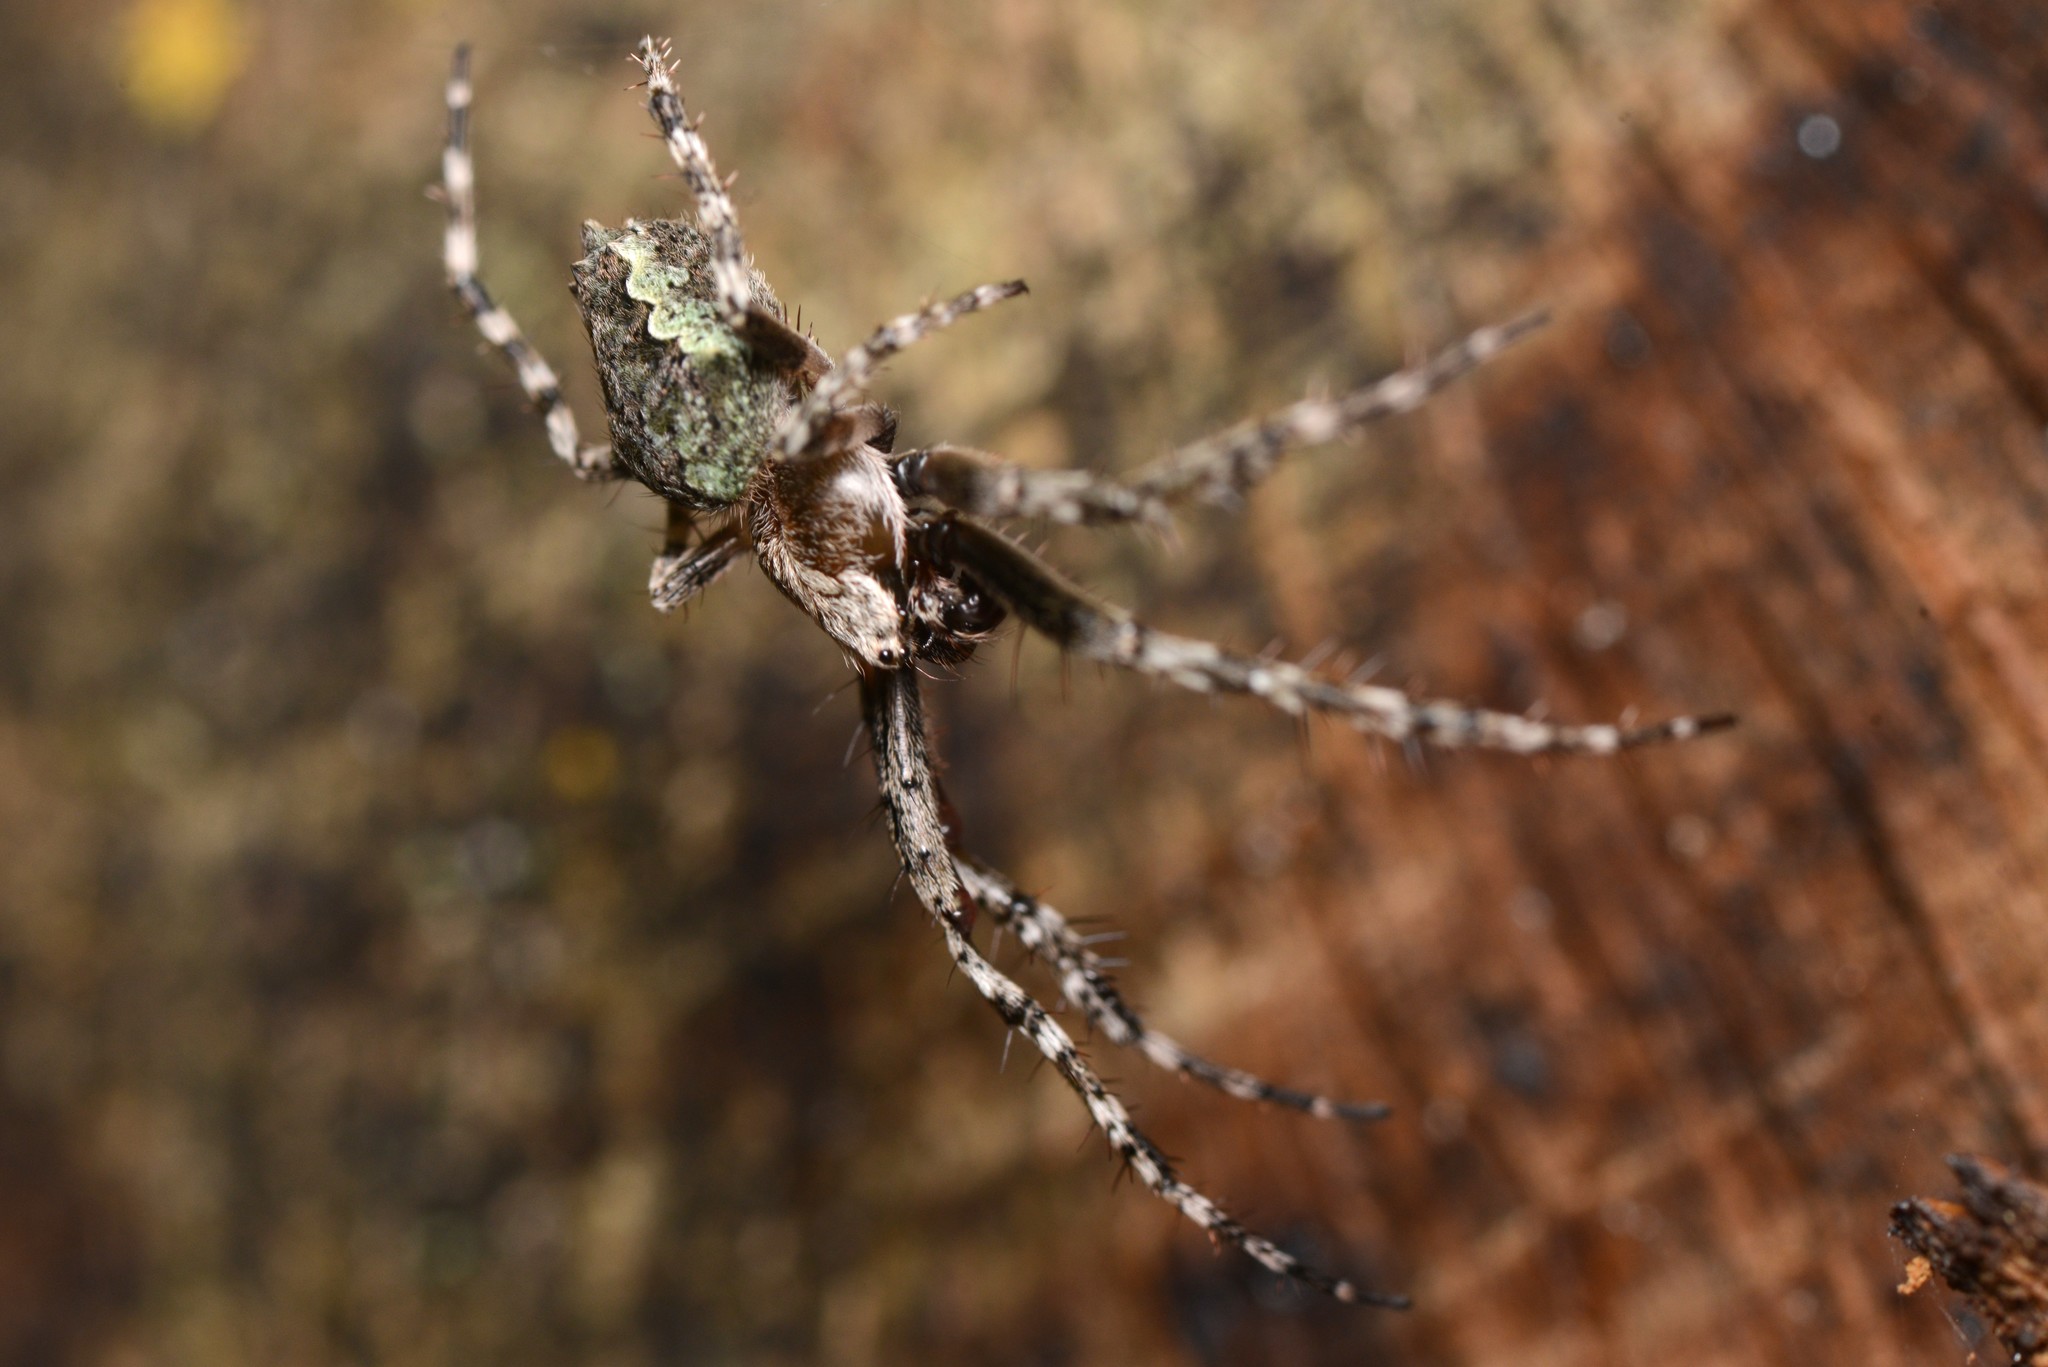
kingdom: Animalia
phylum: Arthropoda
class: Arachnida
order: Araneae
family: Araneidae
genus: Eriophora
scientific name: Eriophora pustulosa
